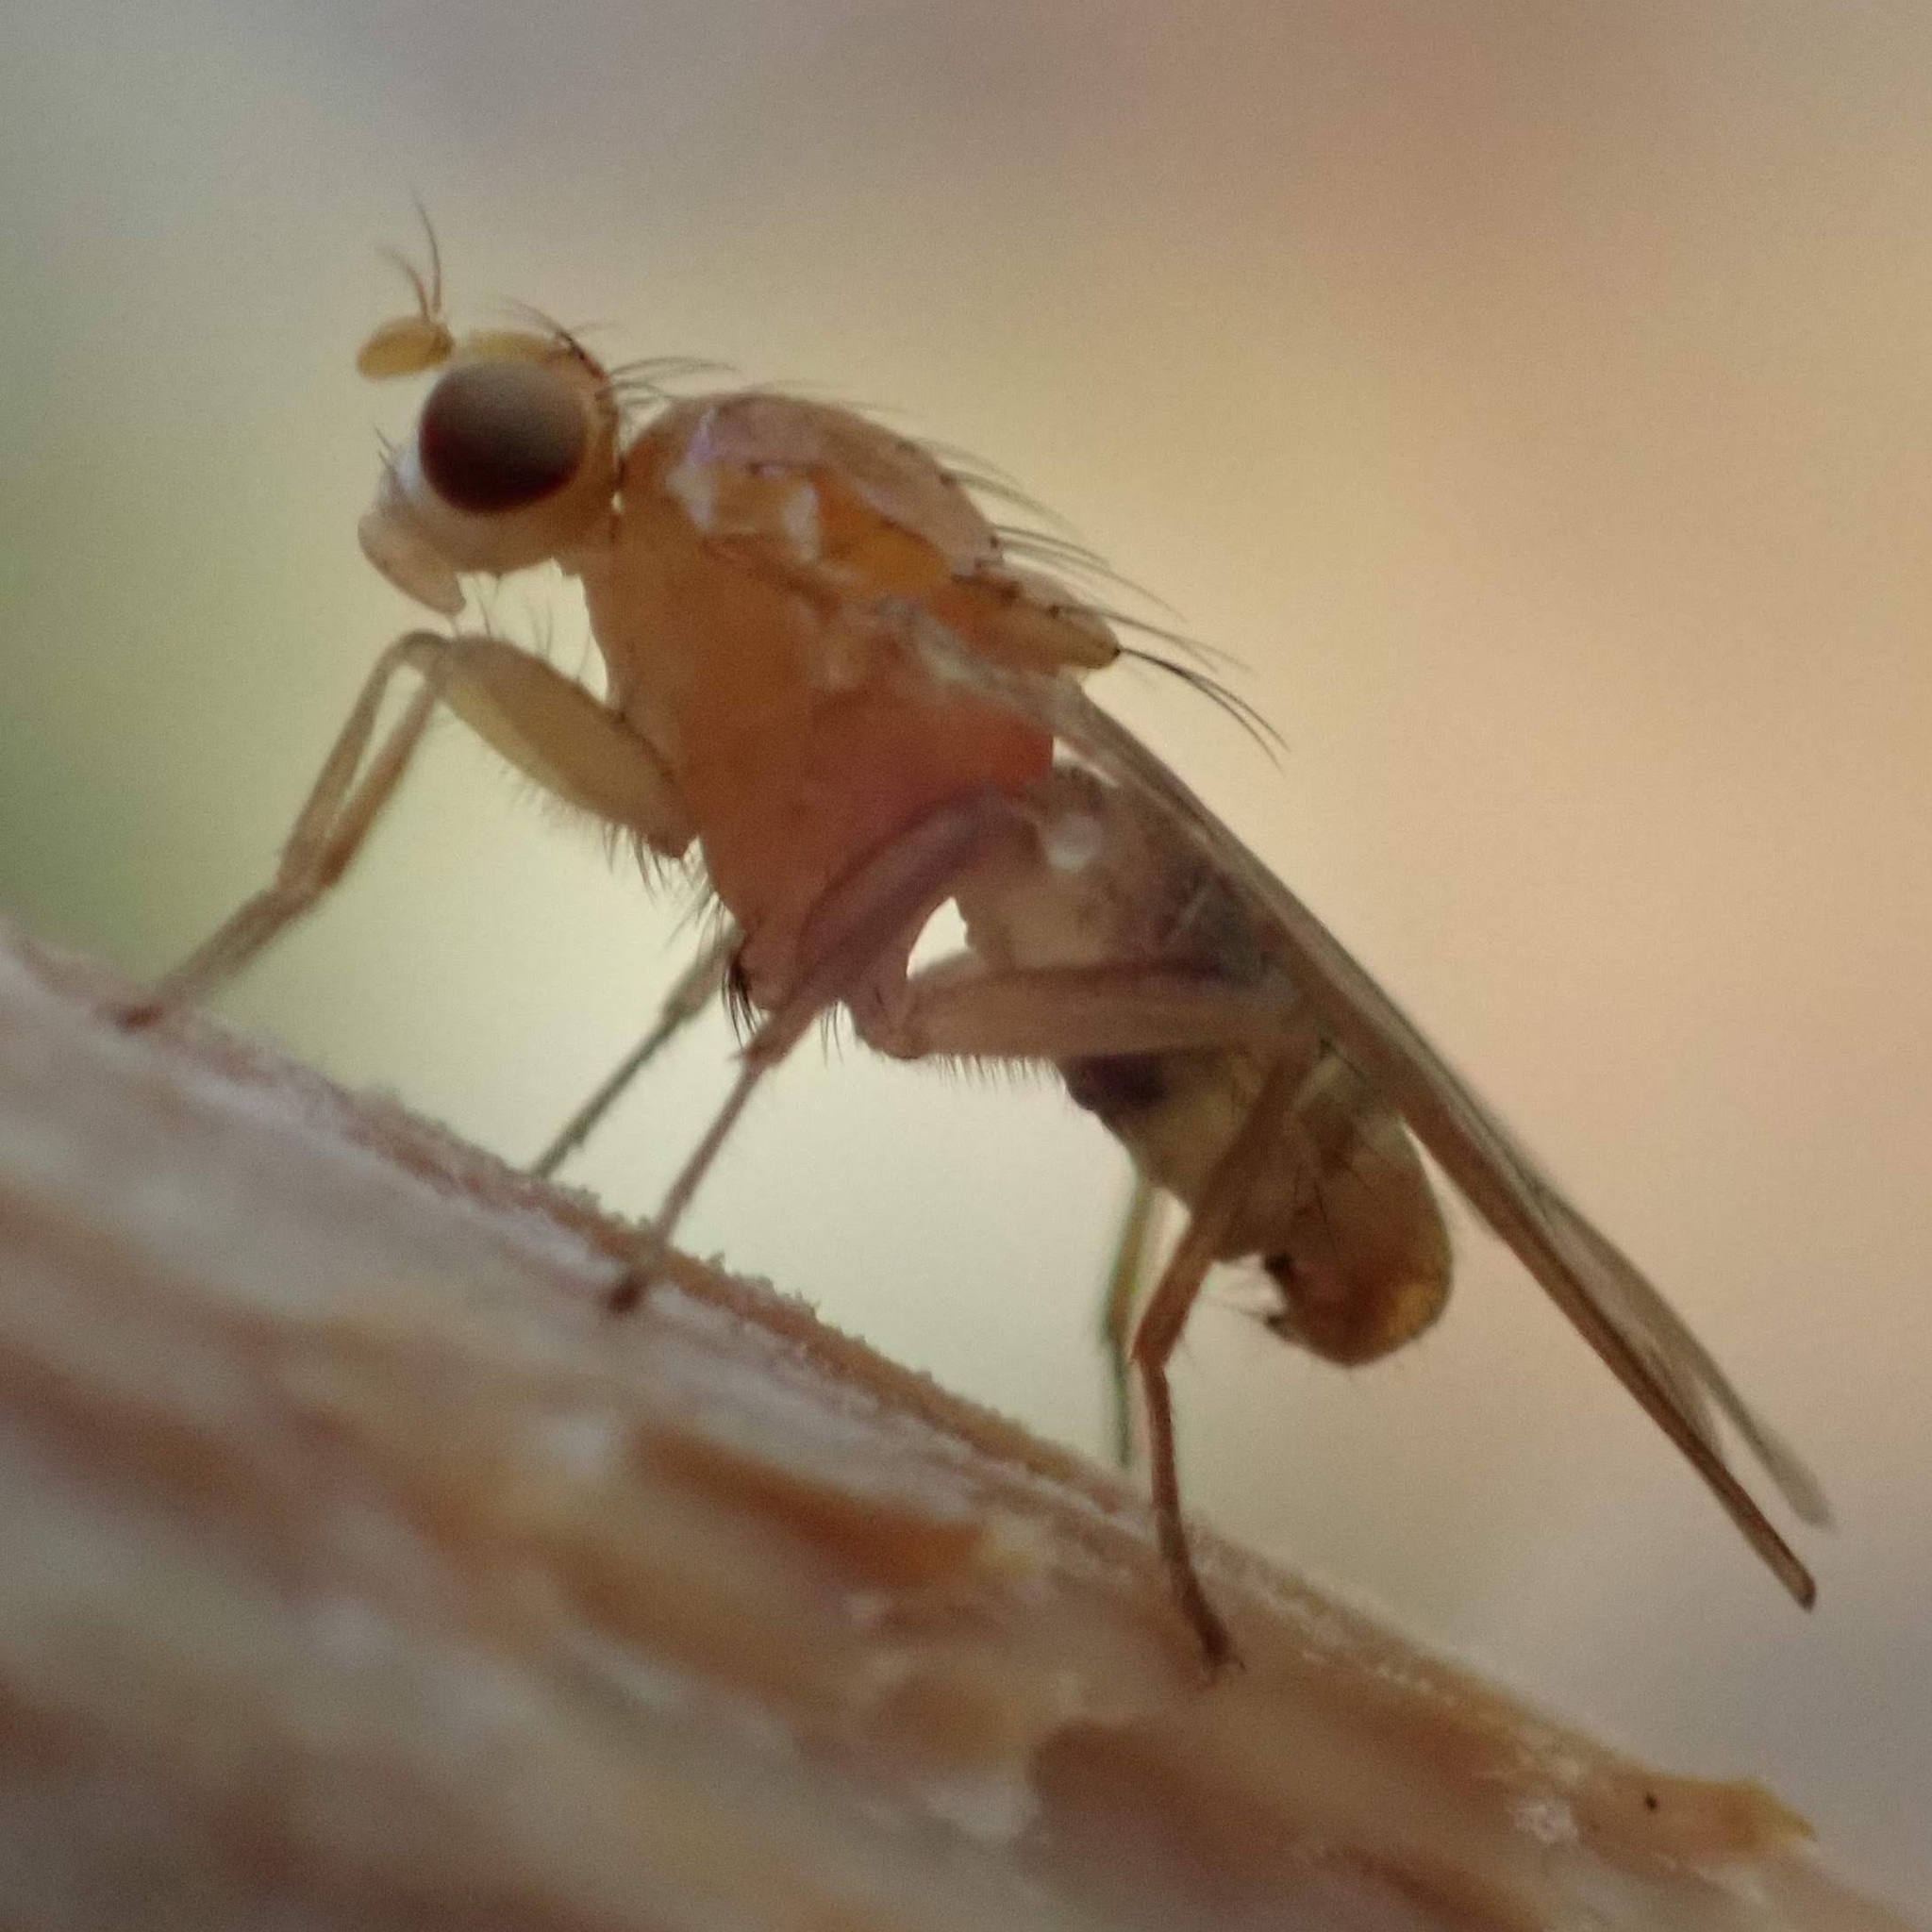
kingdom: Animalia
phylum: Arthropoda
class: Insecta
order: Diptera
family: Heleomyzidae
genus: Allophyla
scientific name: Allophyla laevis
